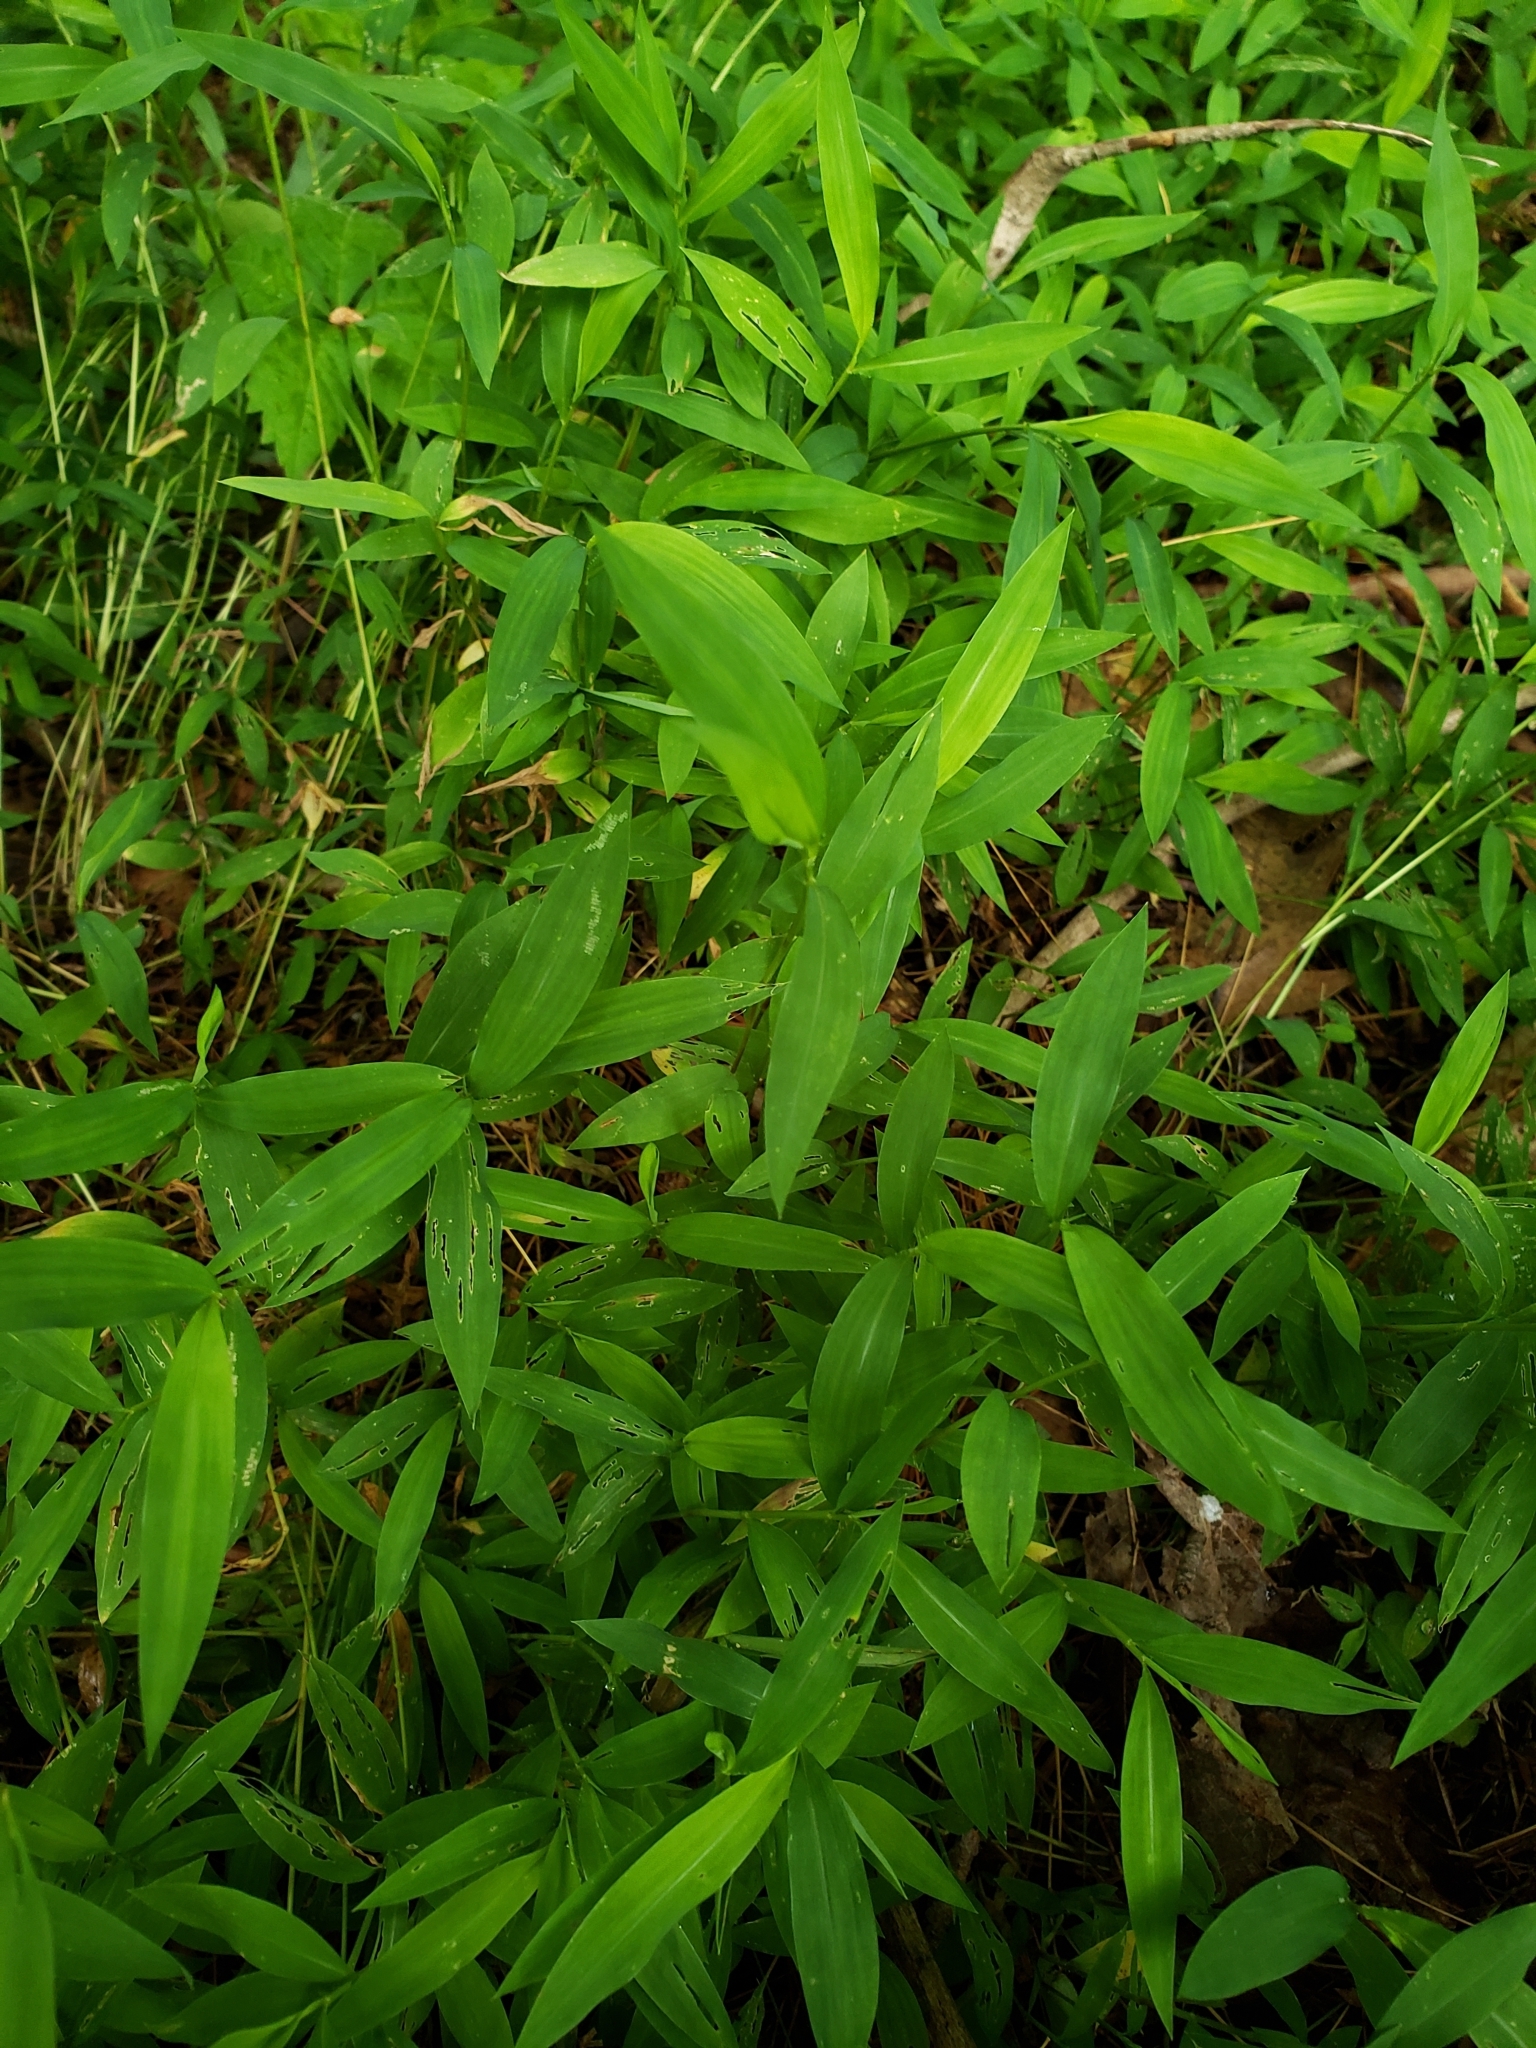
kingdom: Plantae
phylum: Tracheophyta
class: Liliopsida
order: Poales
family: Poaceae
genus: Microstegium
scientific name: Microstegium vimineum
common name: Japanese stiltgrass
